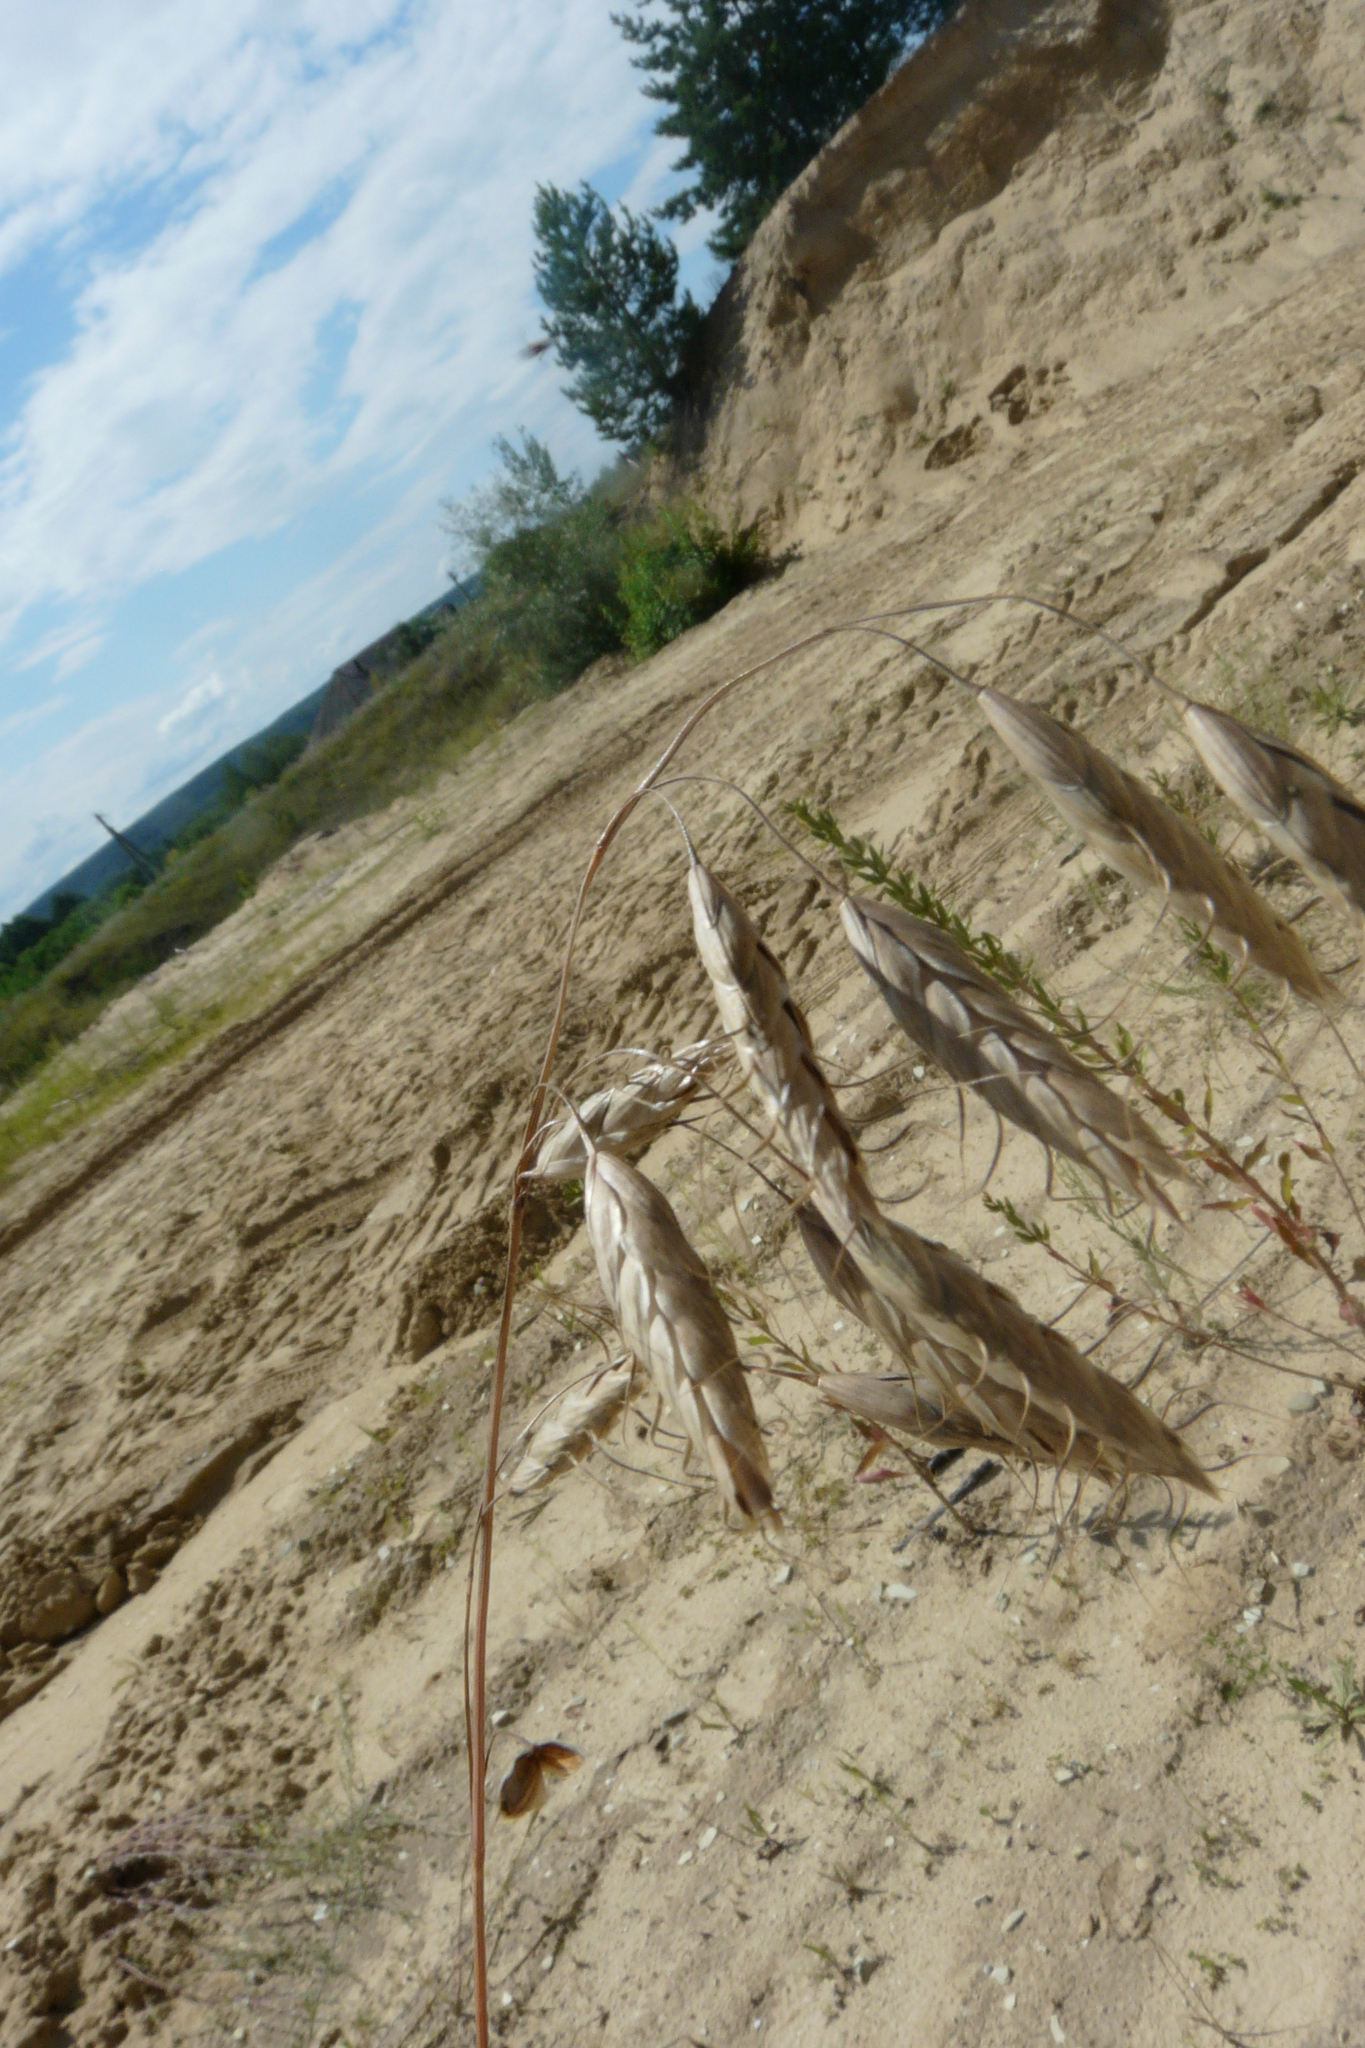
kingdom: Plantae
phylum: Tracheophyta
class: Liliopsida
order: Poales
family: Poaceae
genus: Bromus
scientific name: Bromus squarrosus
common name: Corn brome
